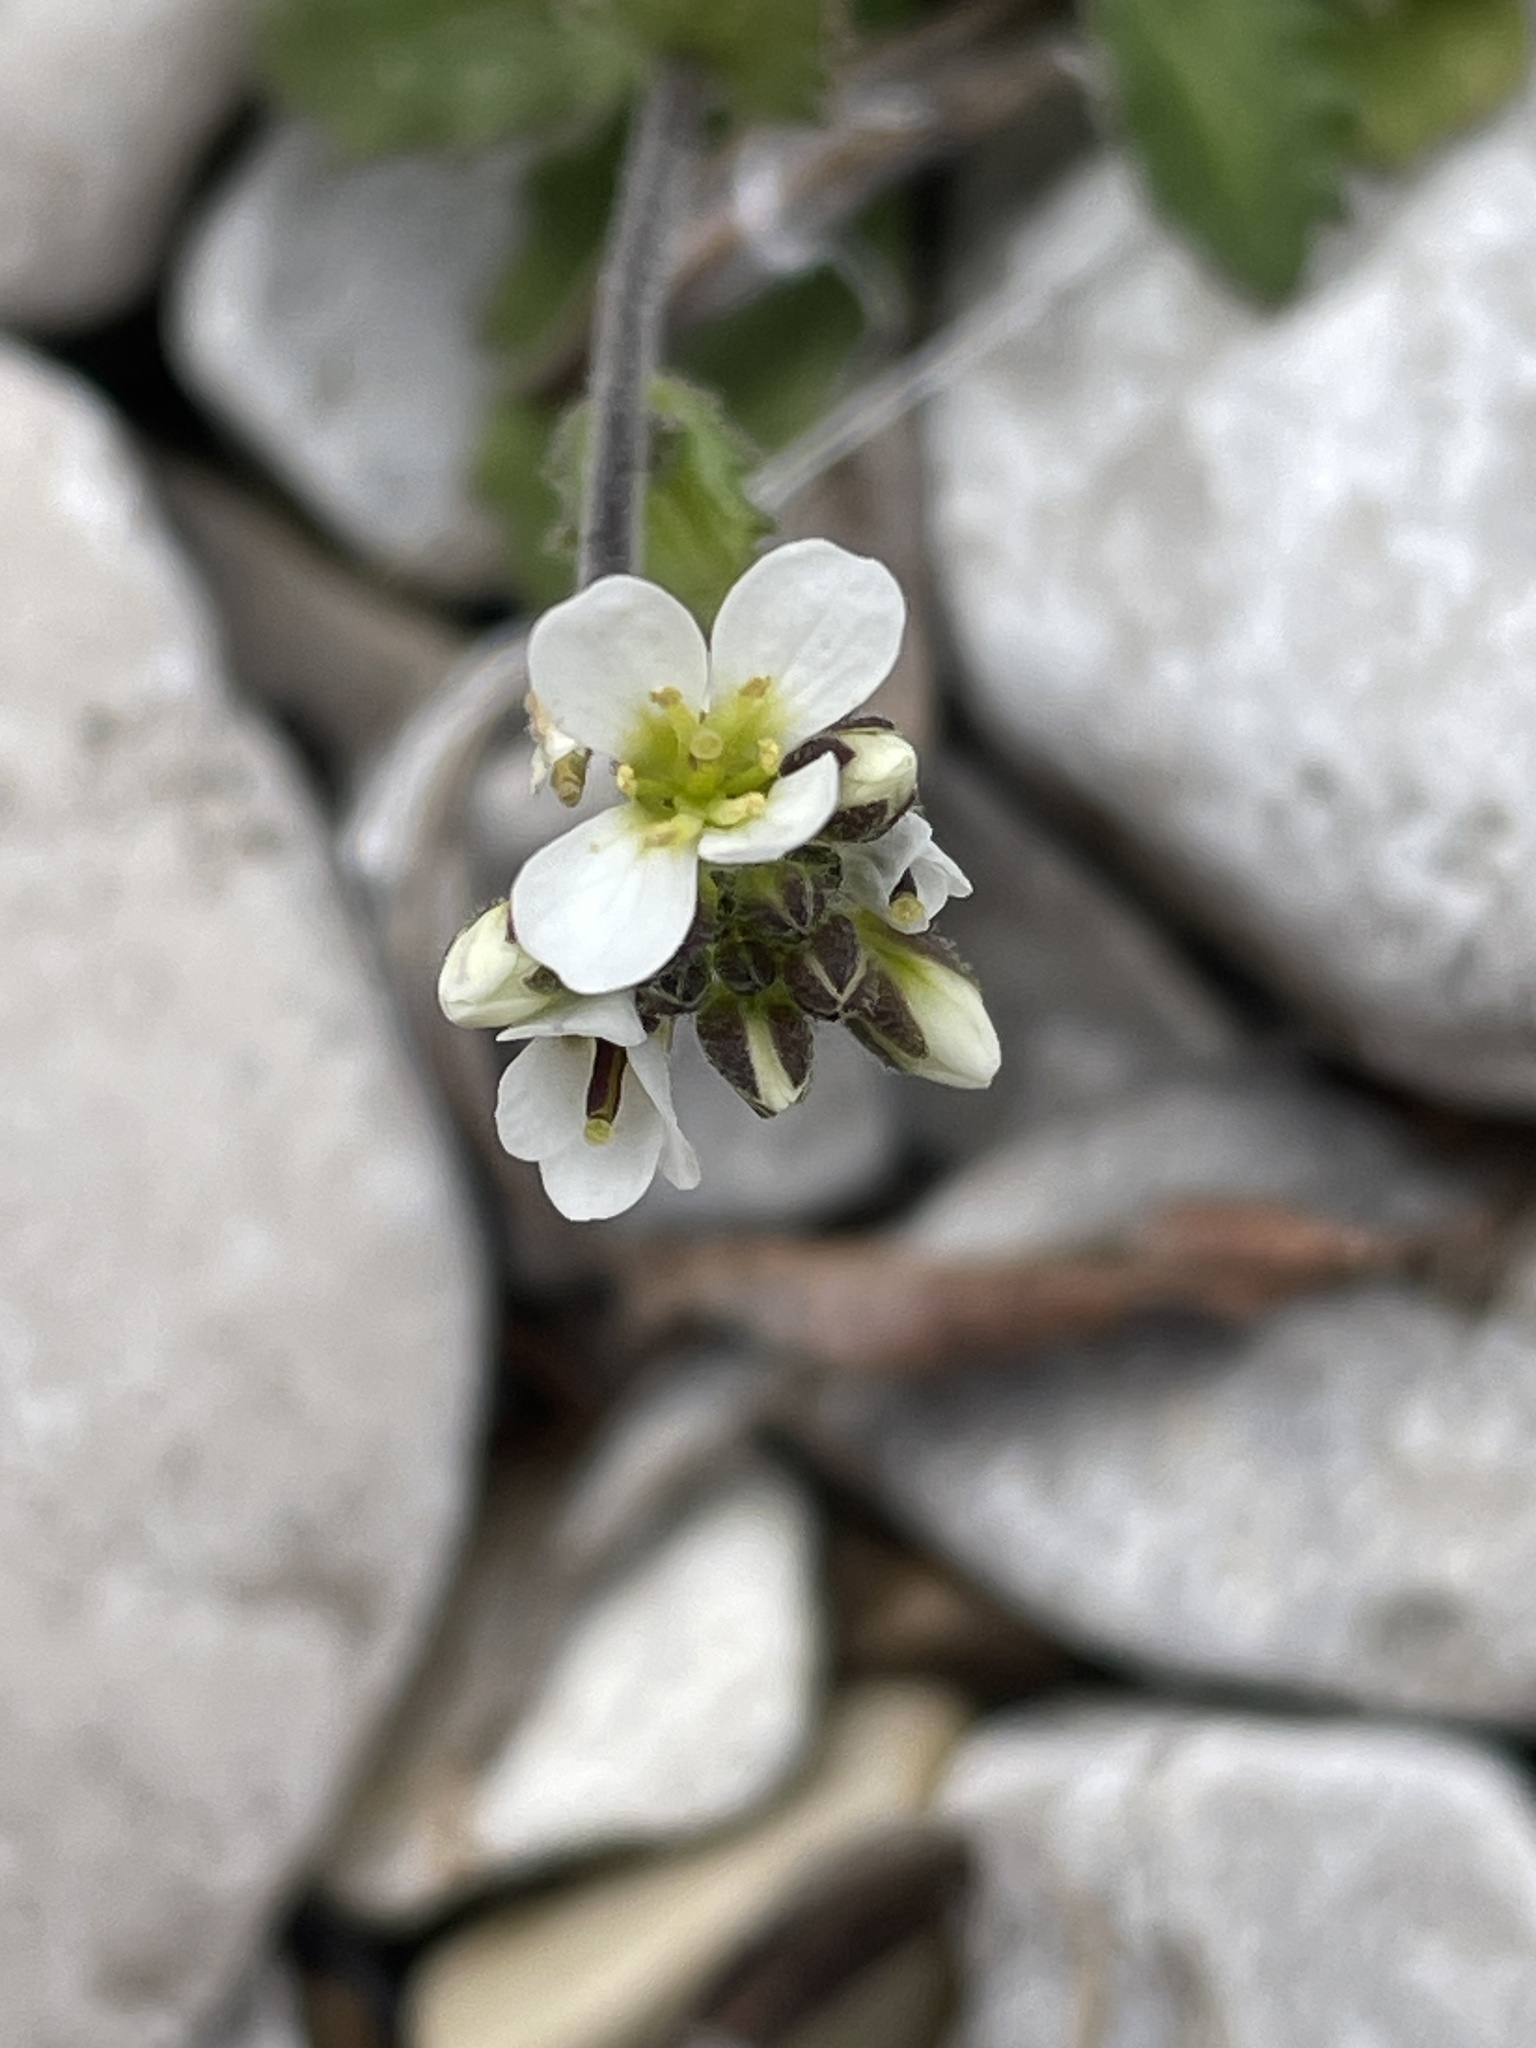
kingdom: Plantae
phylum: Tracheophyta
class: Magnoliopsida
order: Brassicales
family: Brassicaceae
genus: Arabis
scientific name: Arabis alpina
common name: Alpine rock-cress
